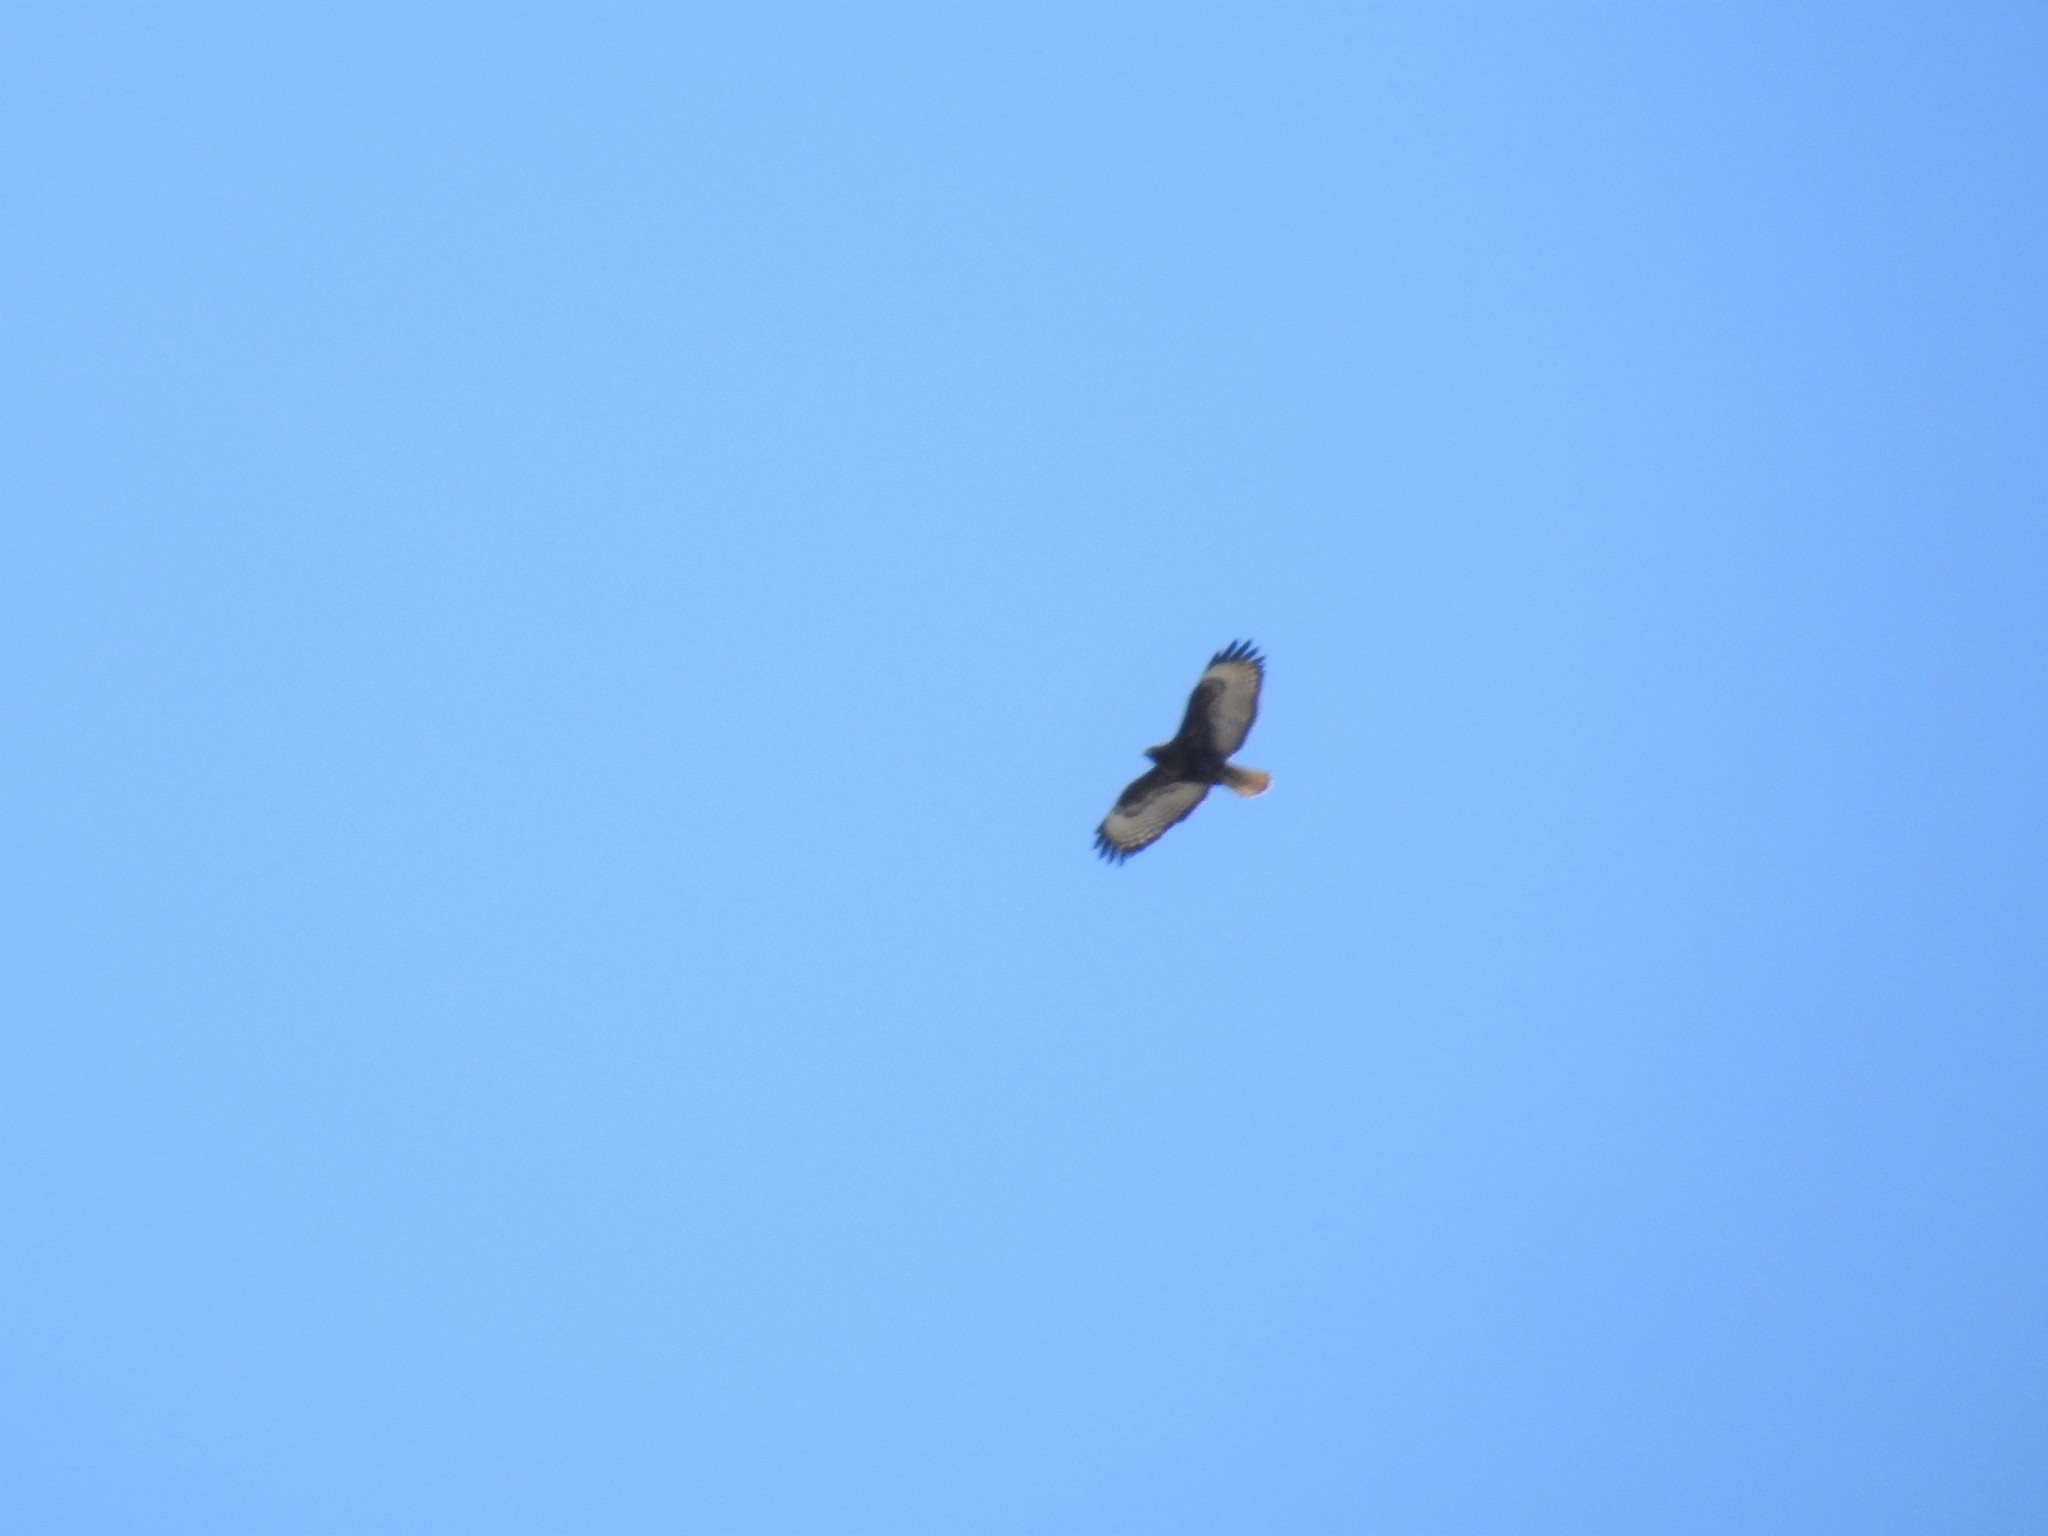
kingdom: Animalia
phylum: Chordata
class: Aves
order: Accipitriformes
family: Accipitridae
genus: Buteo
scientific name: Buteo jamaicensis
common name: Red-tailed hawk
